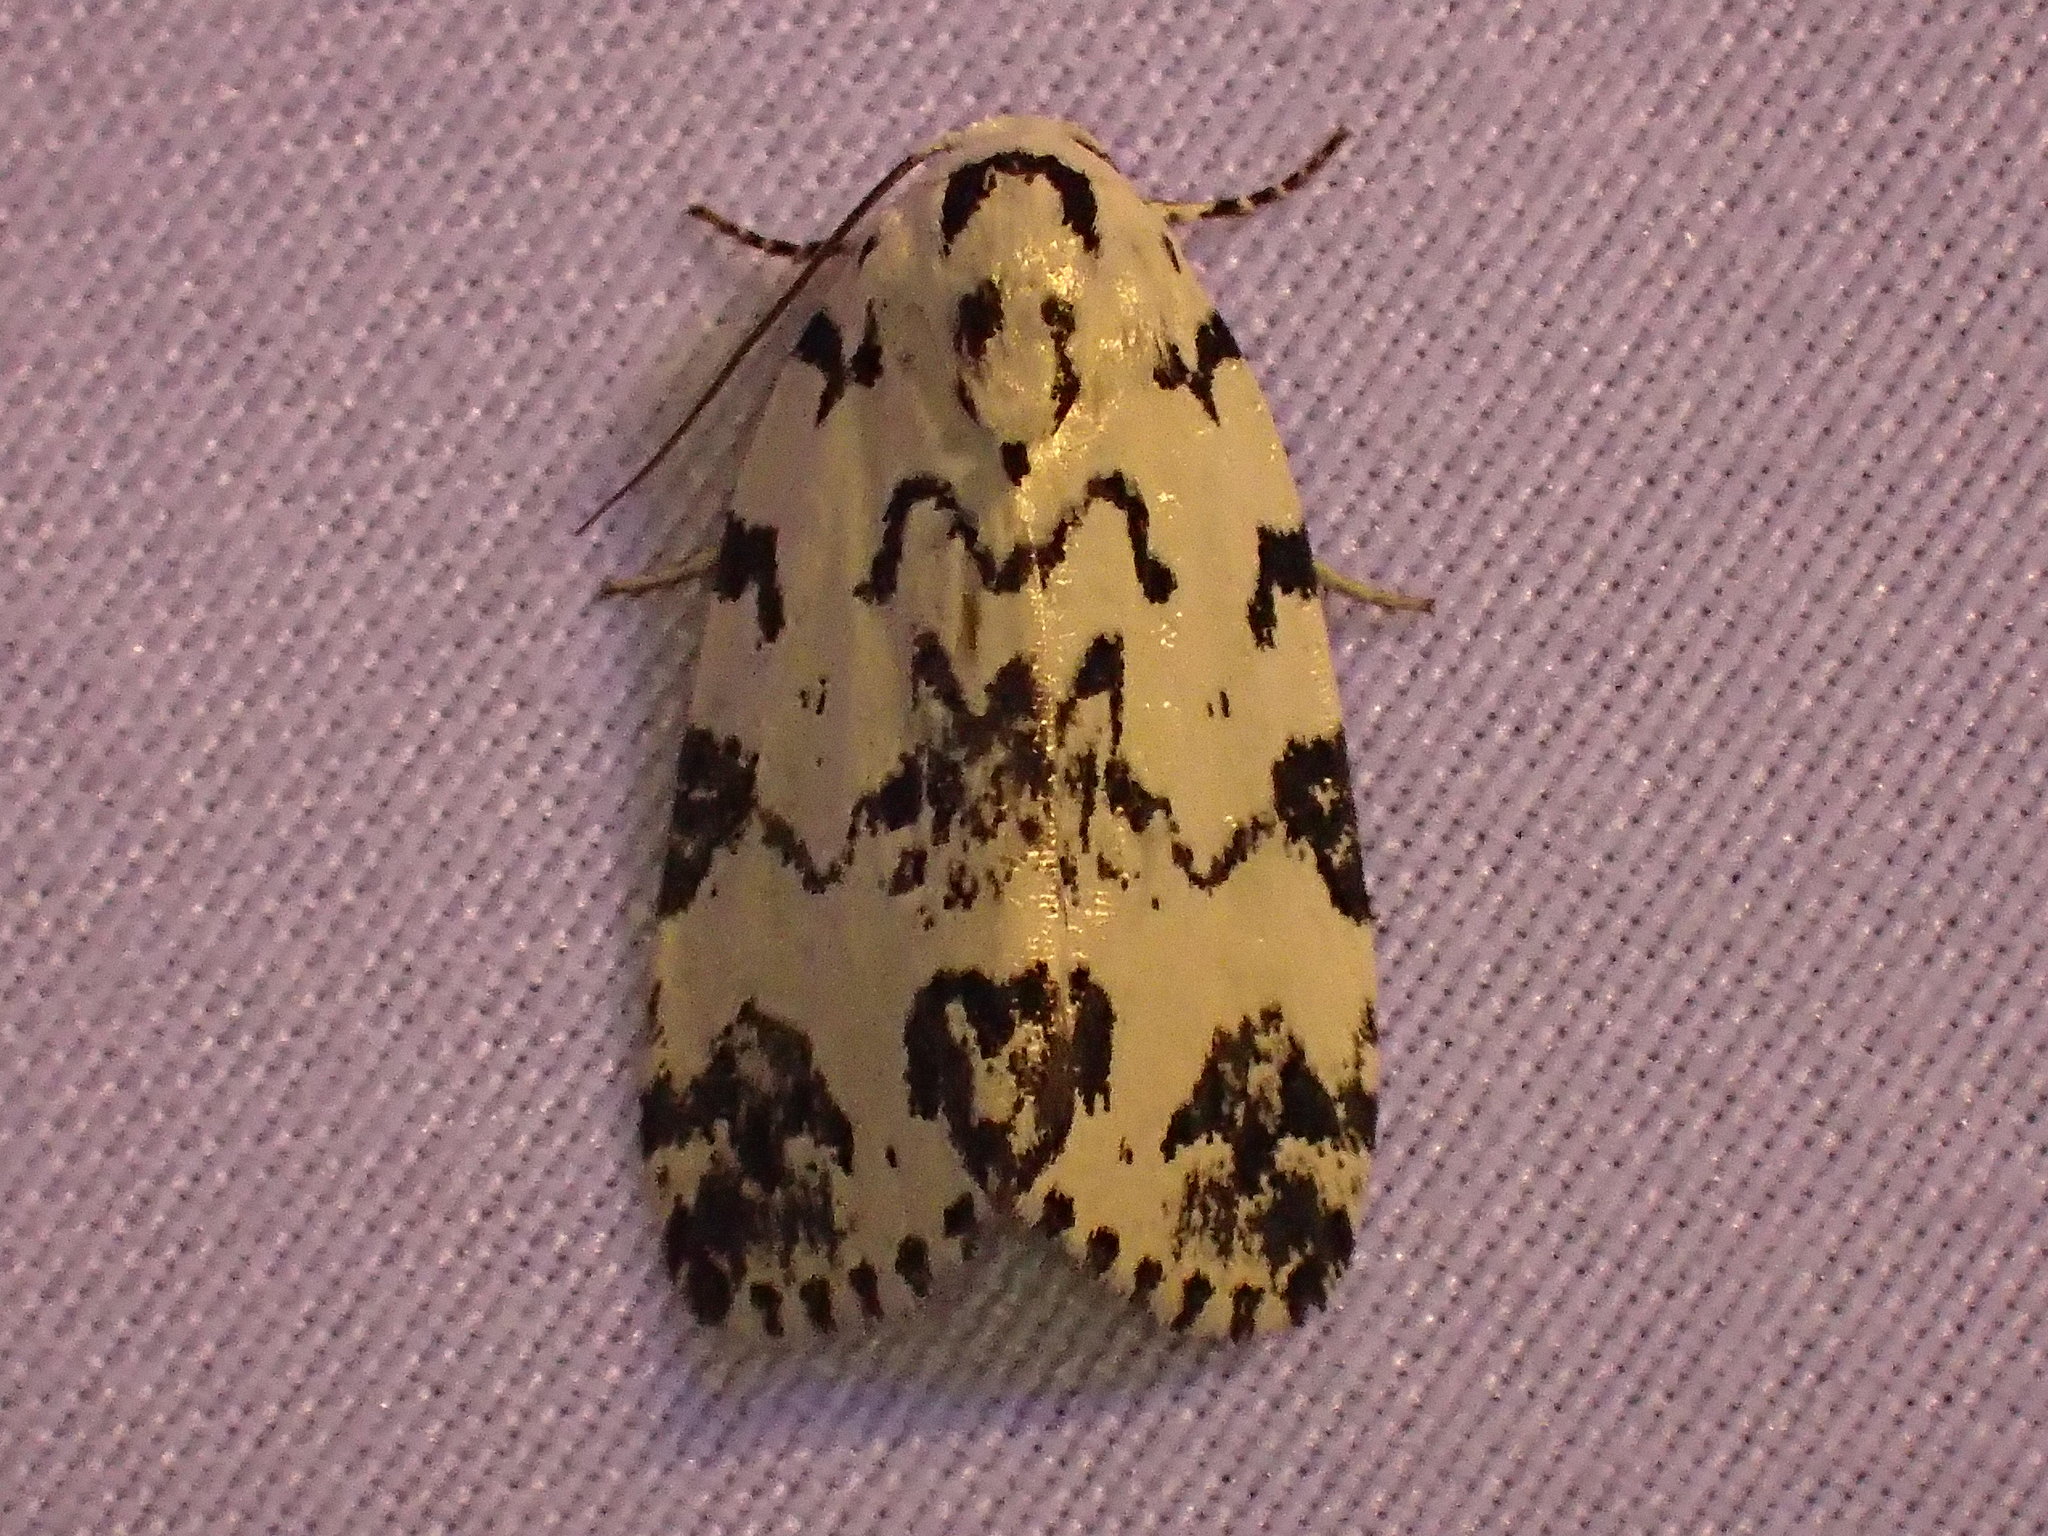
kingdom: Animalia
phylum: Arthropoda
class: Insecta
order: Lepidoptera
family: Noctuidae
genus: Polygrammate
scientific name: Polygrammate hebraeicum
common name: Hebrew moth
